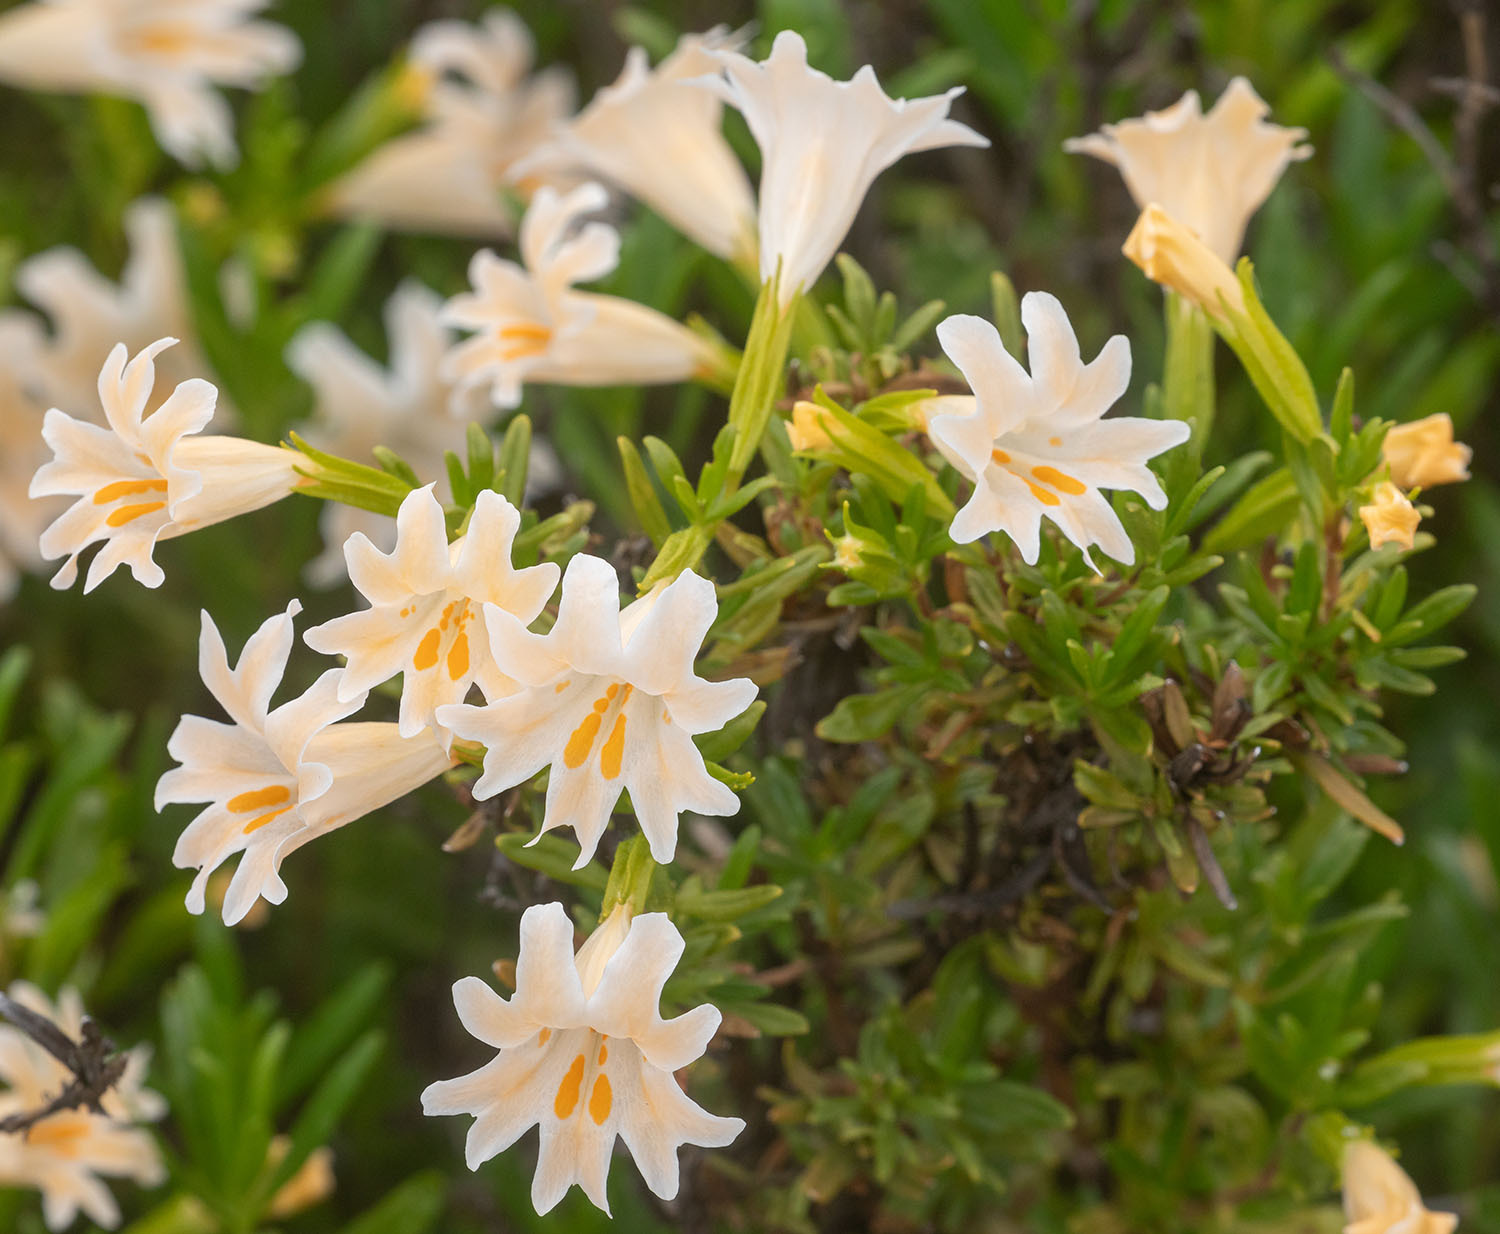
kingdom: Plantae
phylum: Tracheophyta
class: Magnoliopsida
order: Lamiales
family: Phrymaceae
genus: Diplacus
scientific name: Diplacus linearis
